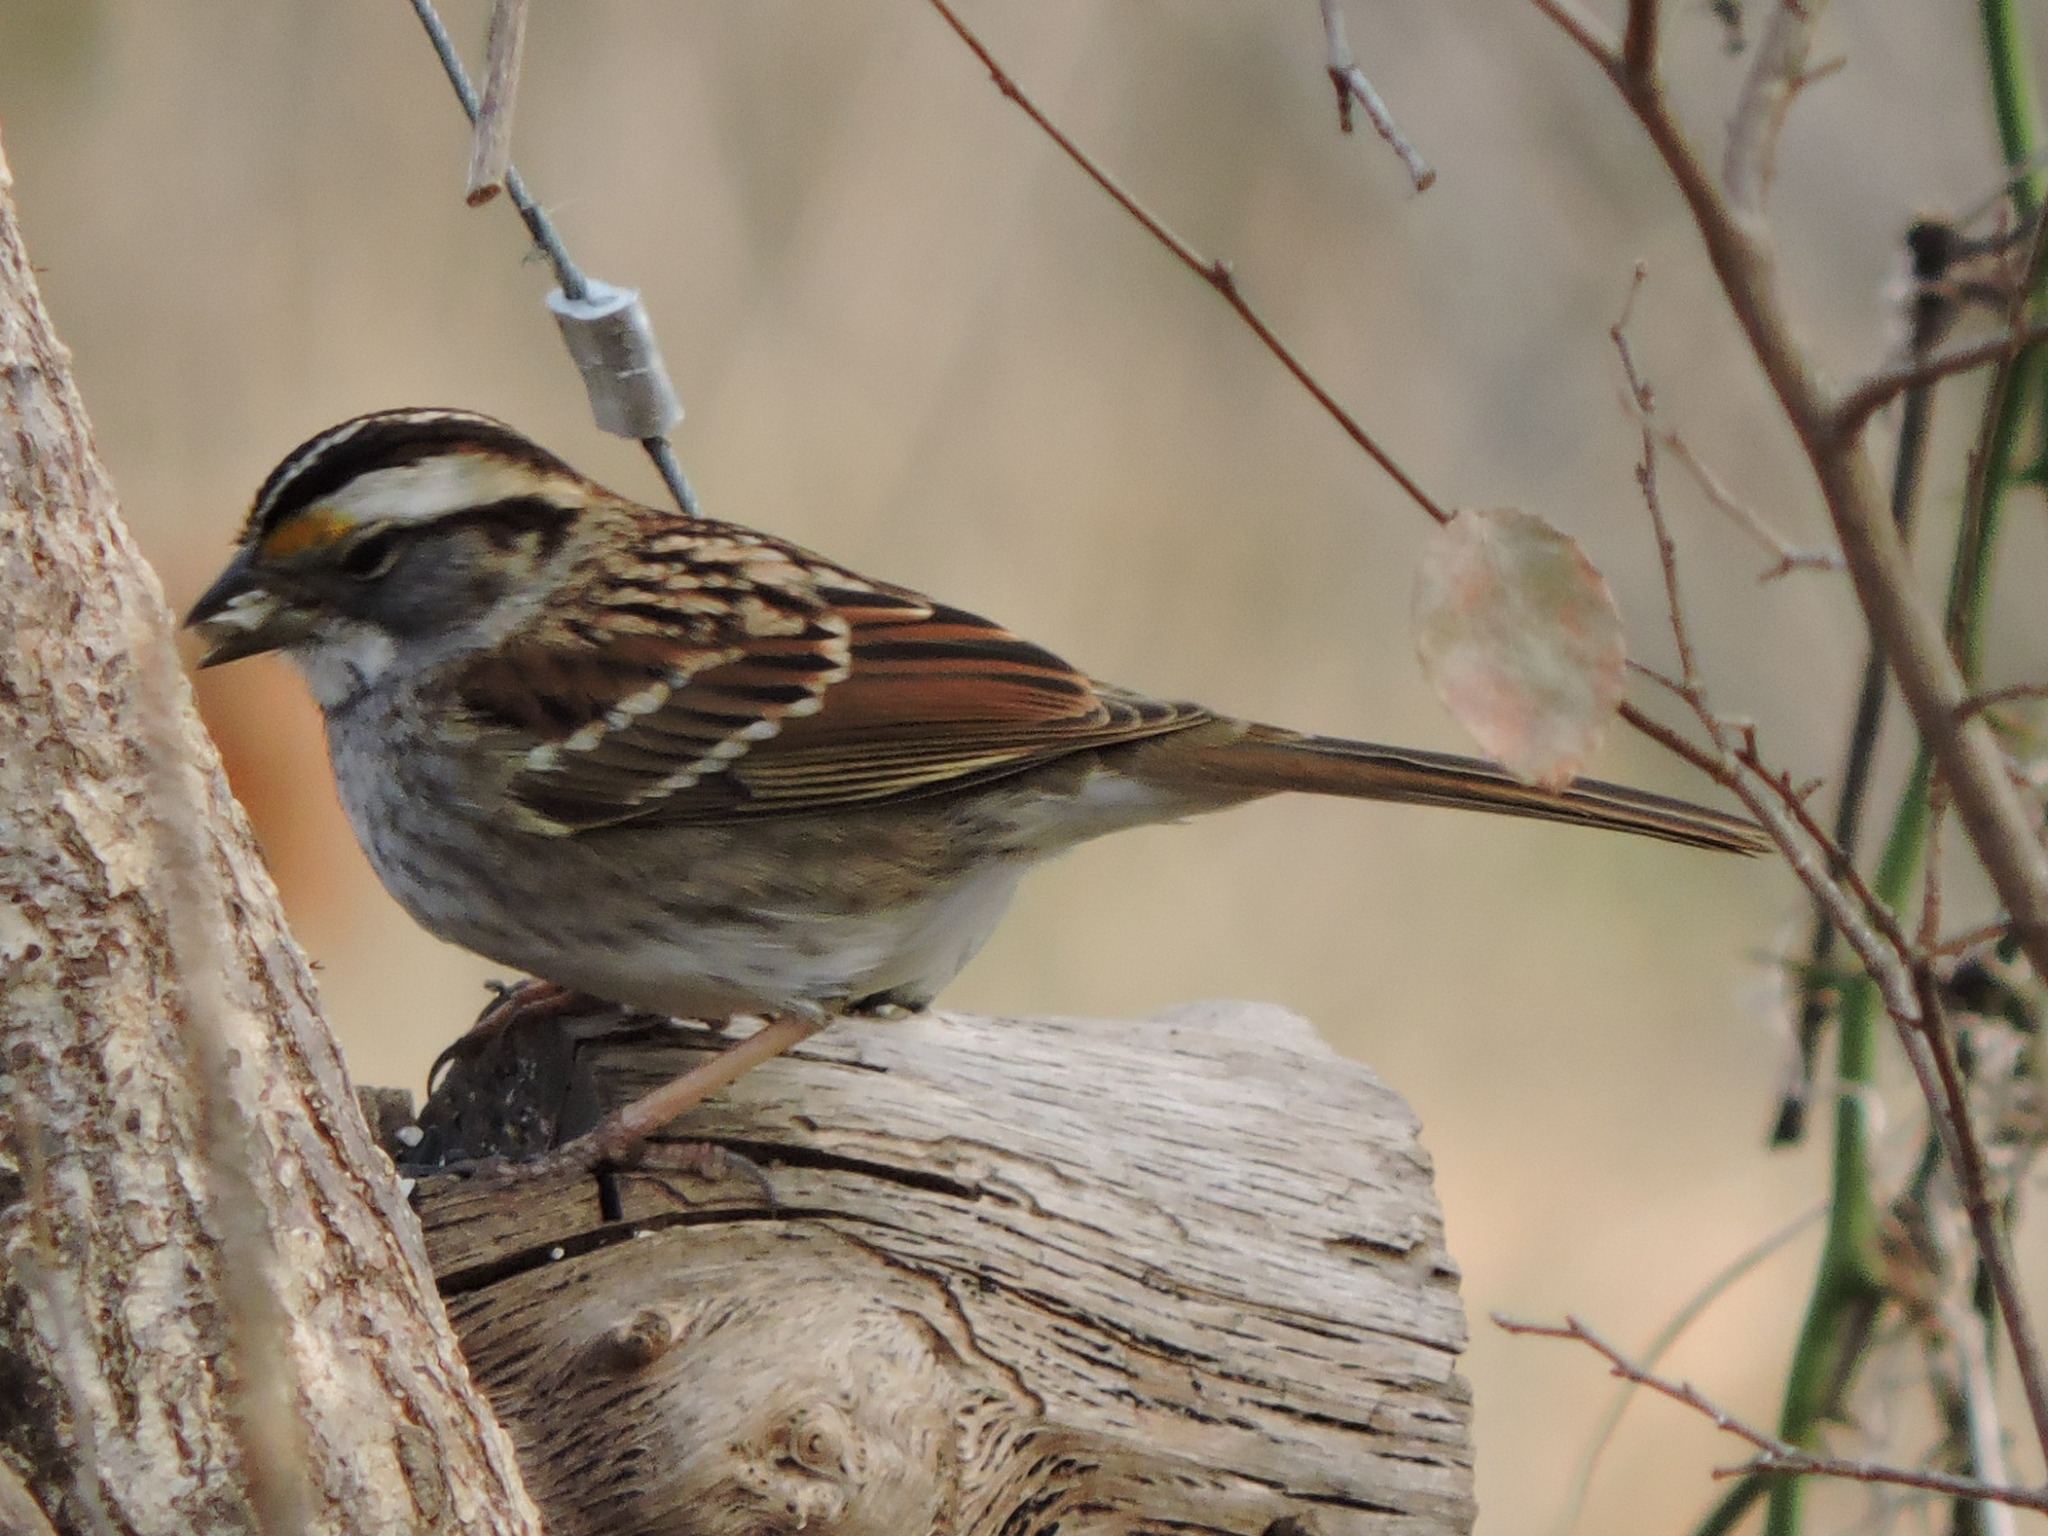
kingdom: Animalia
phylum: Chordata
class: Aves
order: Passeriformes
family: Passerellidae
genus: Zonotrichia
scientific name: Zonotrichia albicollis
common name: White-throated sparrow
